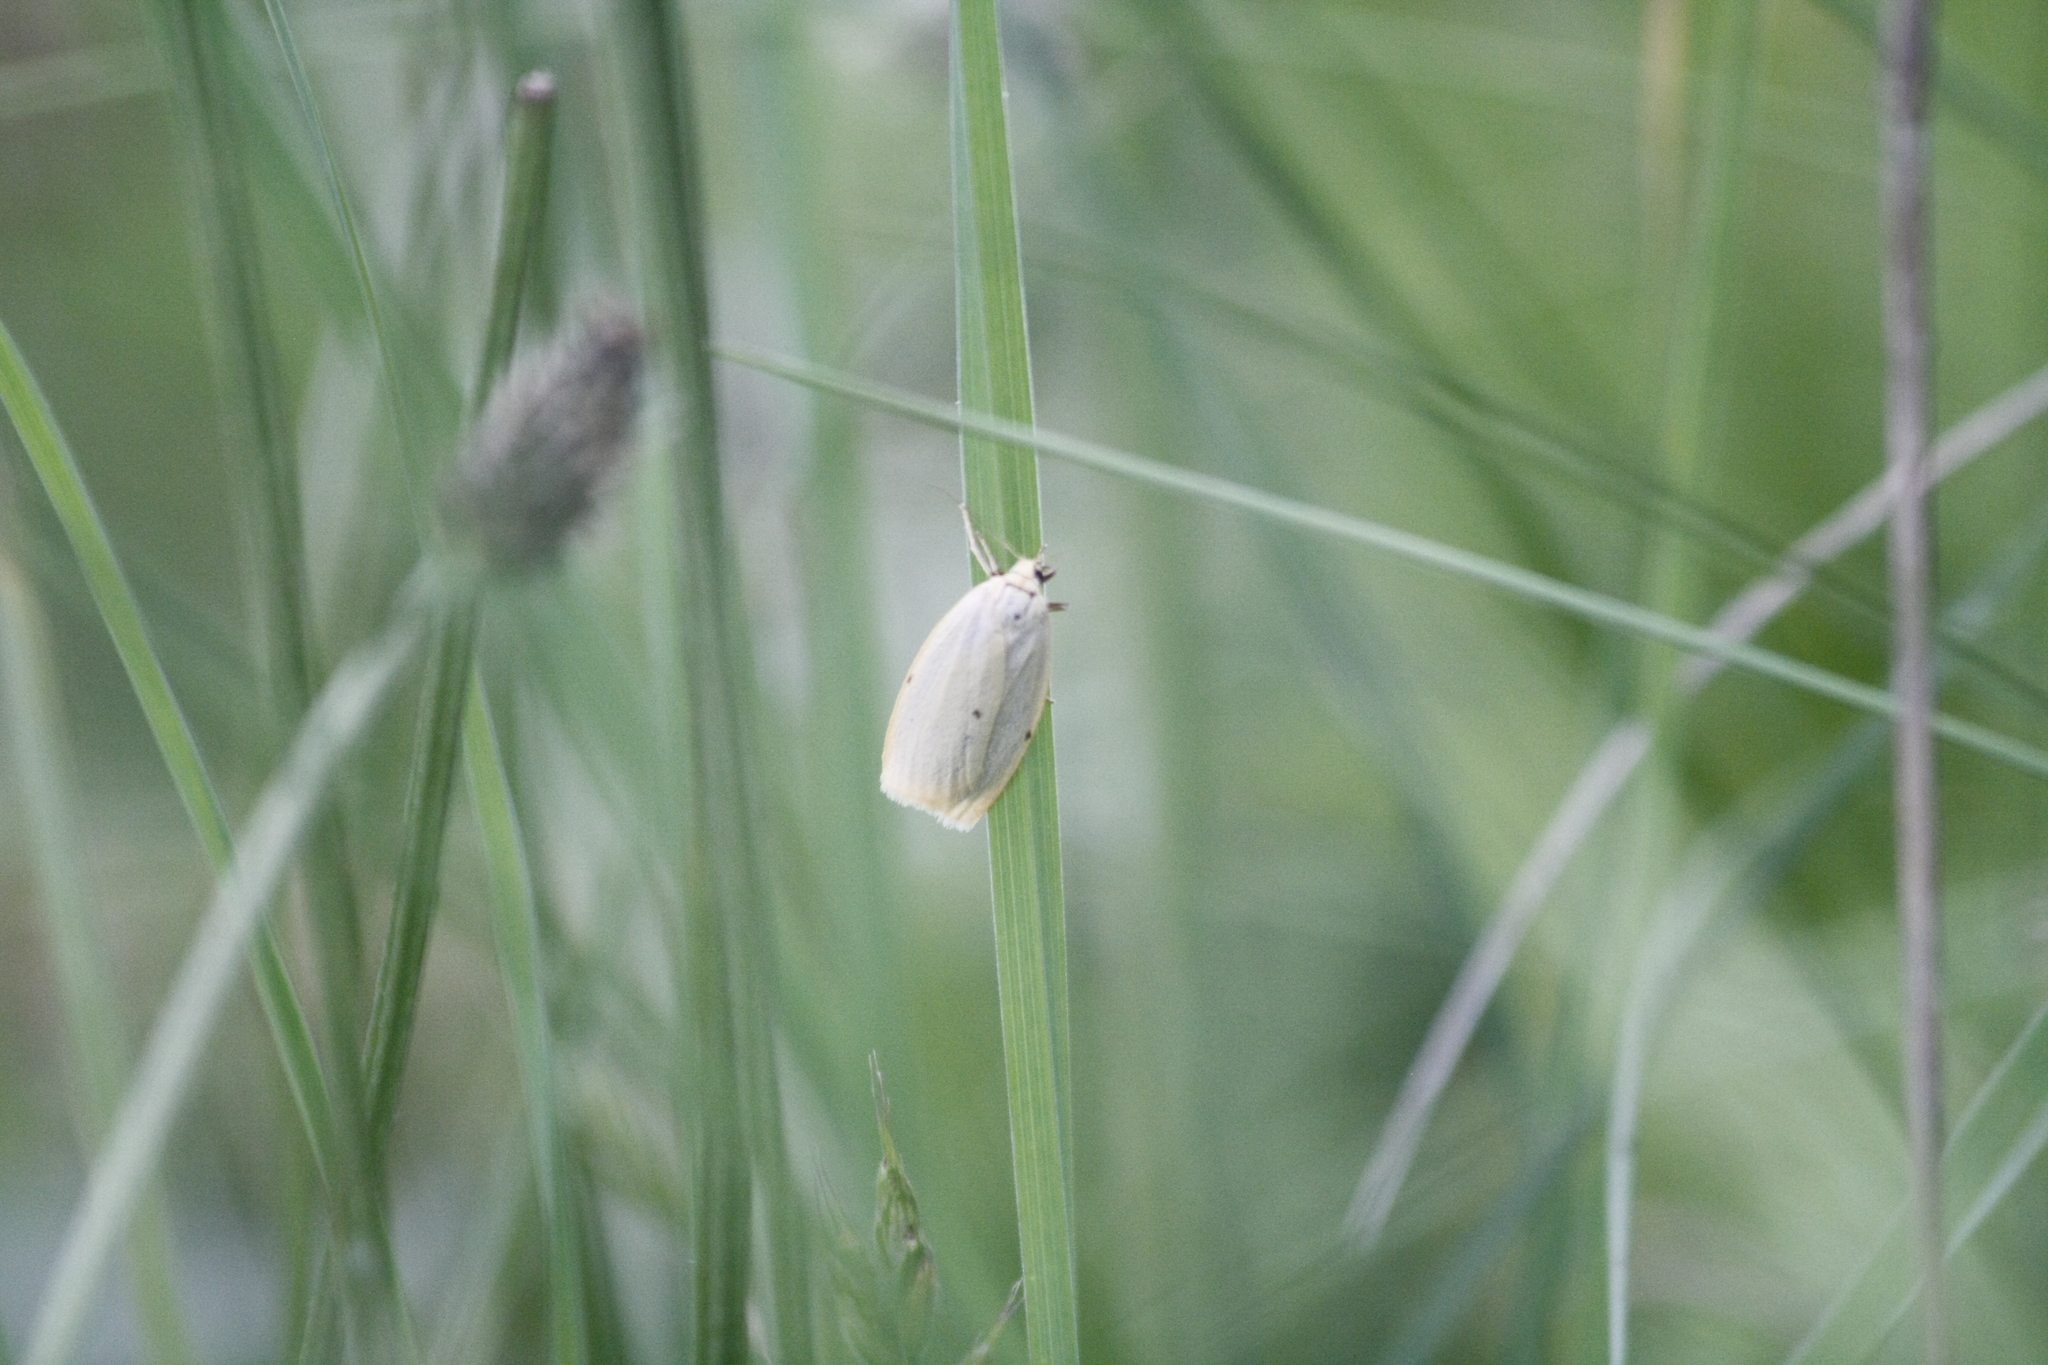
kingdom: Animalia
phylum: Arthropoda
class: Insecta
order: Lepidoptera
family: Erebidae
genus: Cybosia
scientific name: Cybosia mesomella
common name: Four-dotted footman
